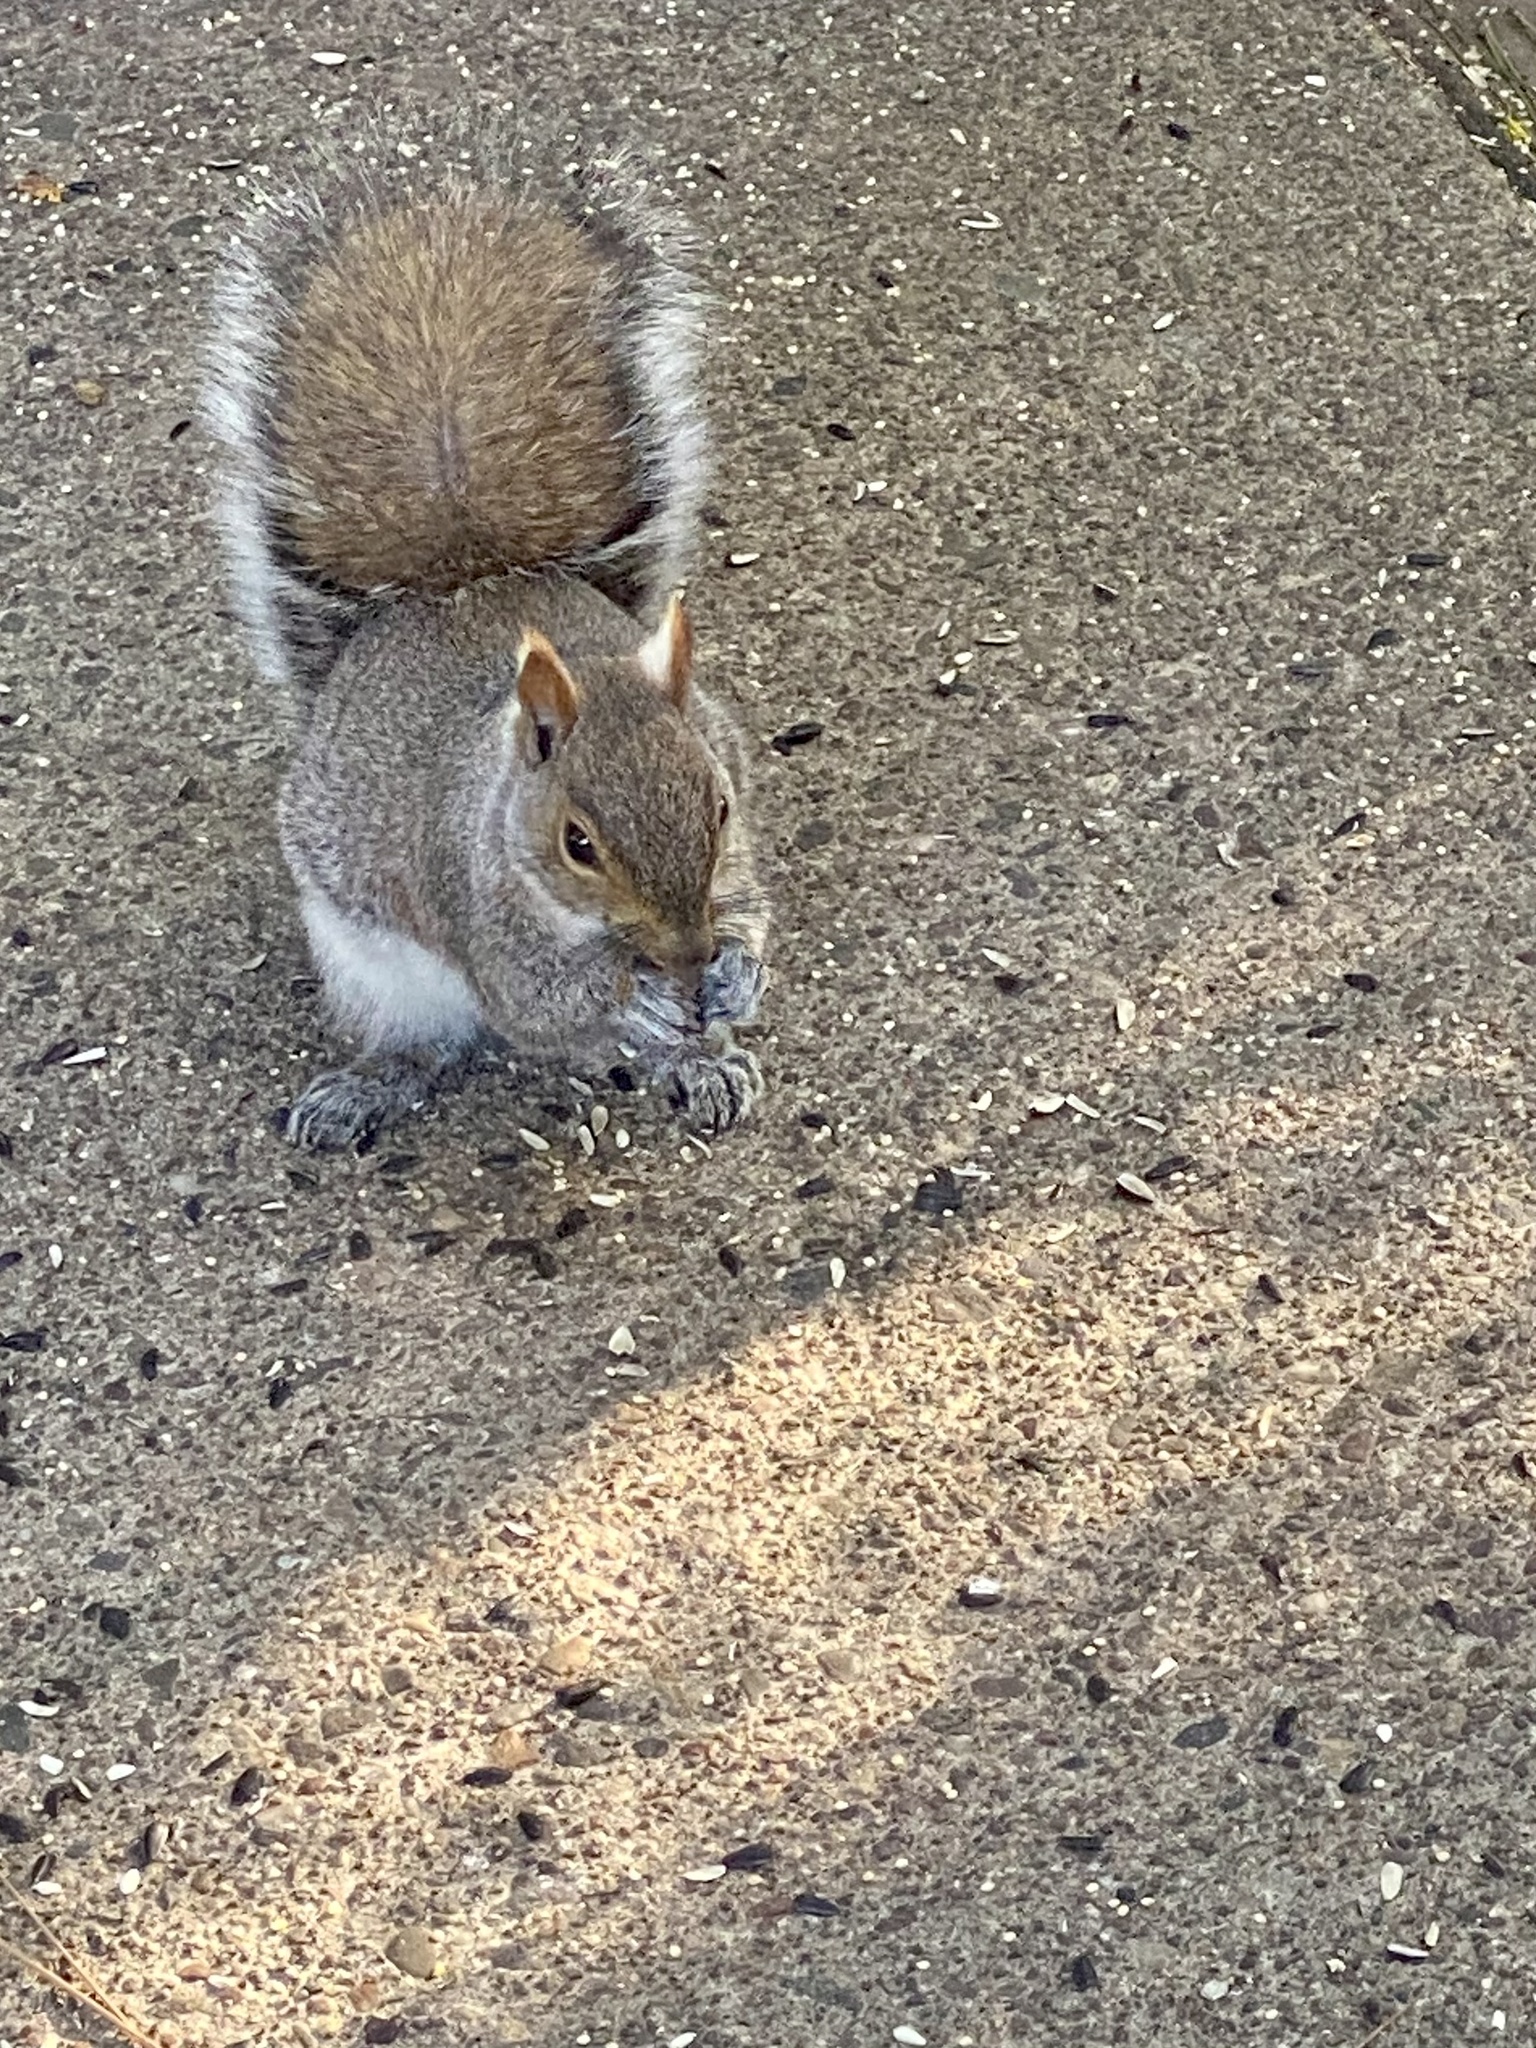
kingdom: Animalia
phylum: Chordata
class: Mammalia
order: Rodentia
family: Sciuridae
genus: Sciurus
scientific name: Sciurus carolinensis
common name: Eastern gray squirrel
